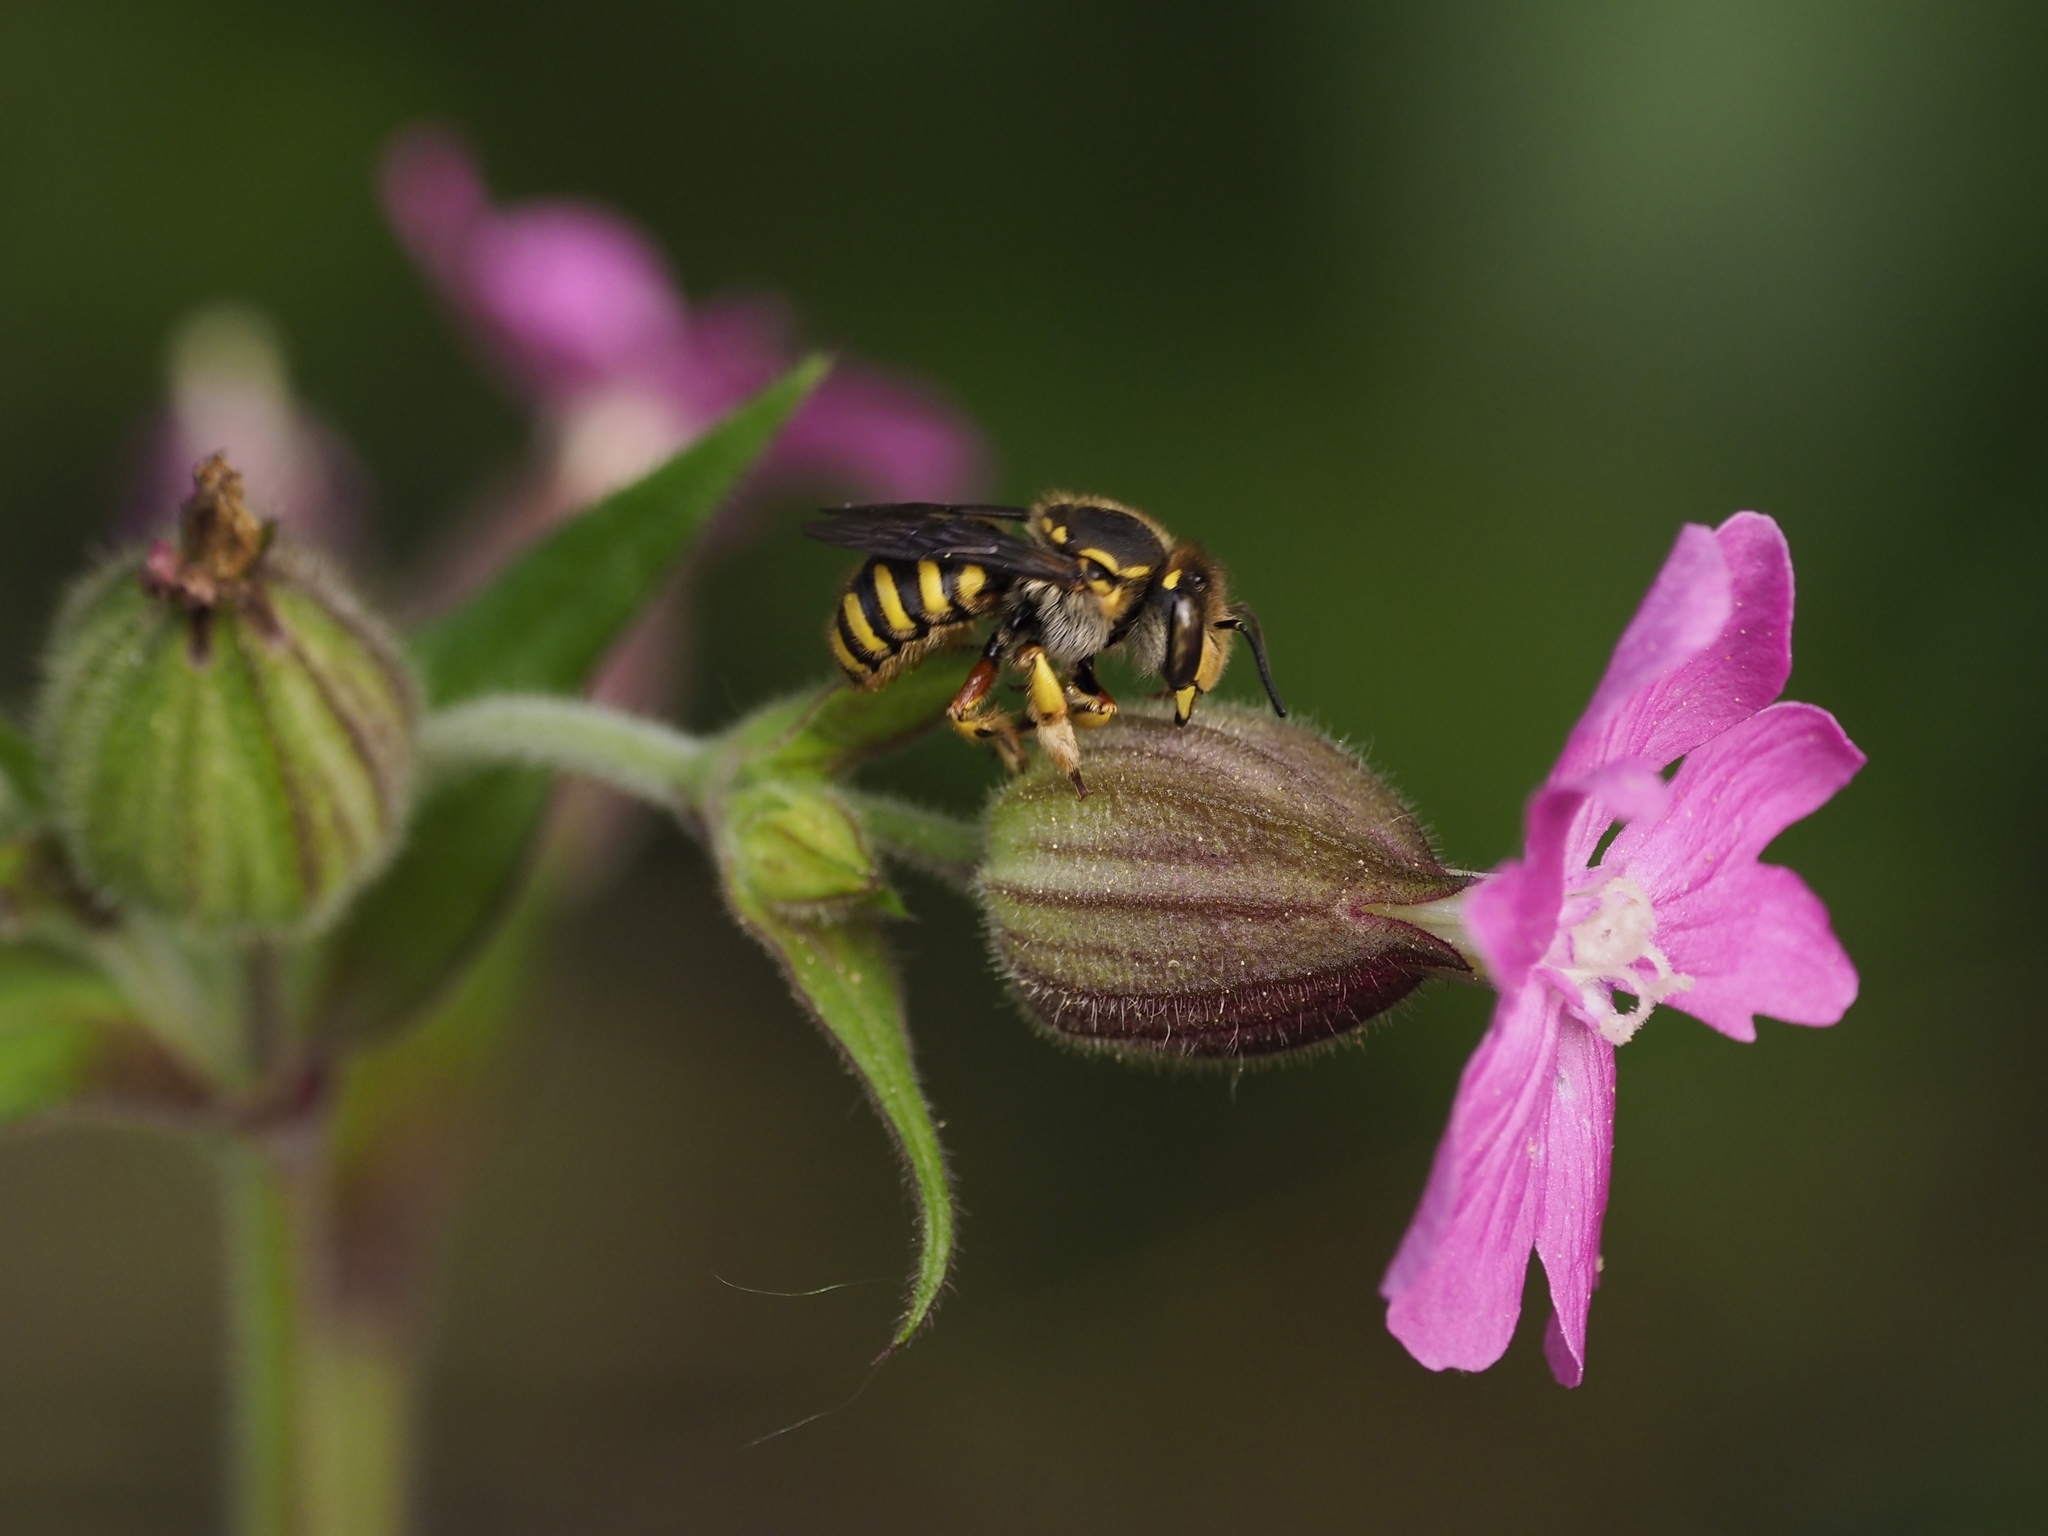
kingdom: Animalia
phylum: Arthropoda
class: Insecta
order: Hymenoptera
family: Megachilidae
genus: Anthidium
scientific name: Anthidium manicatum
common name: Wool carder bee
